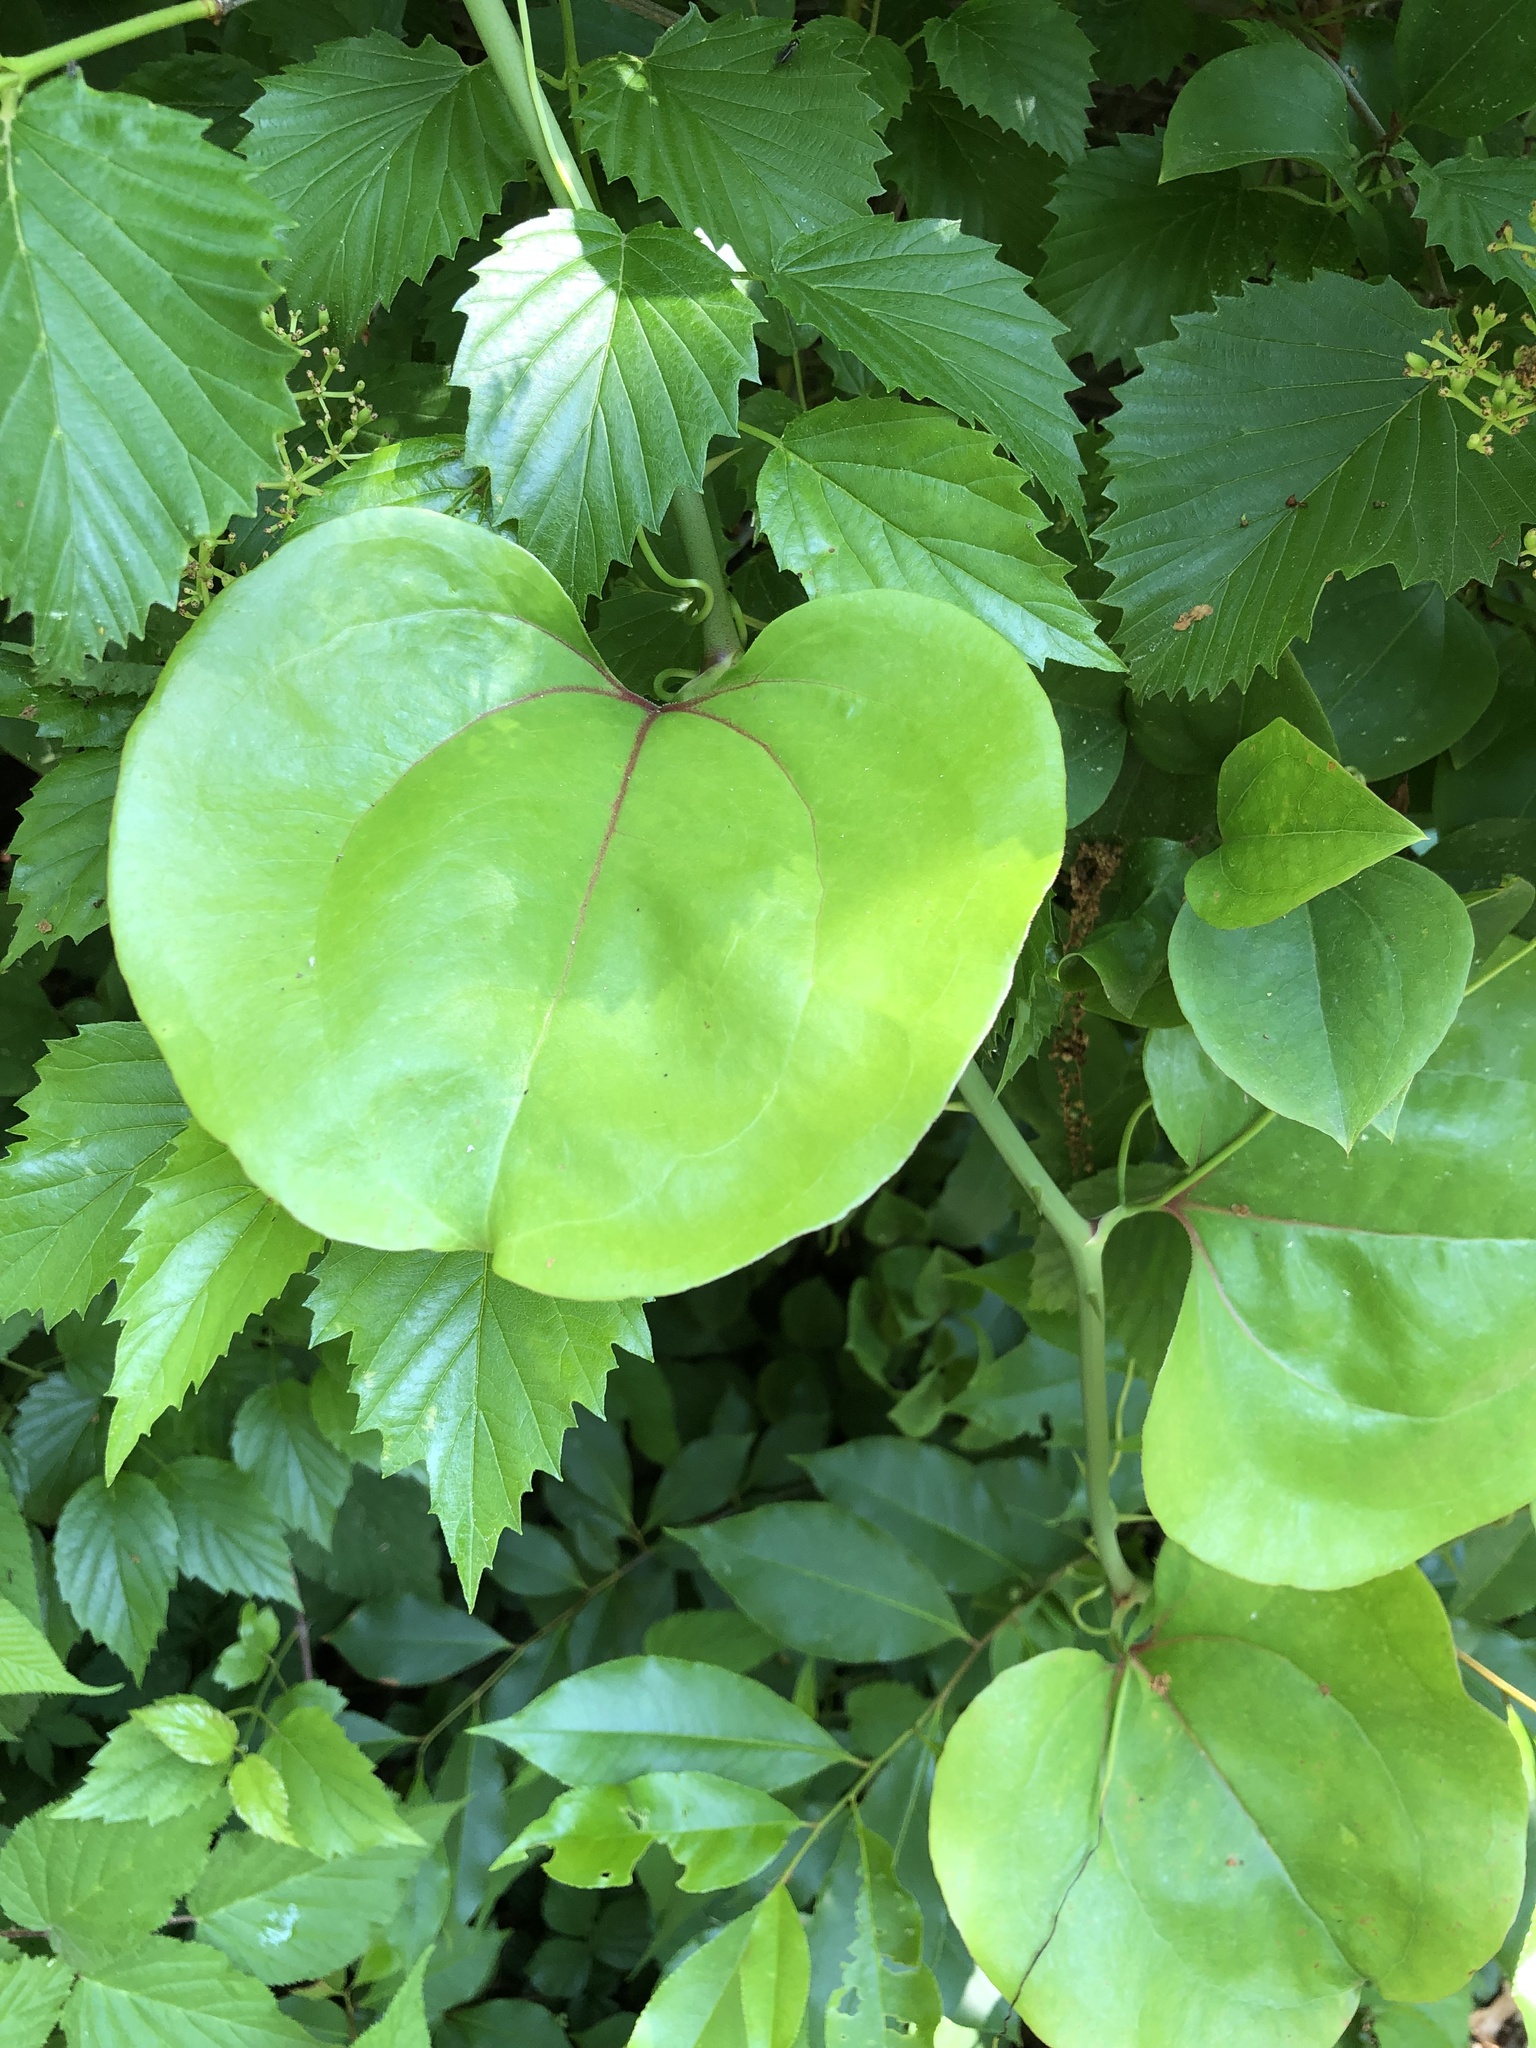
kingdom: Plantae
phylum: Tracheophyta
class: Liliopsida
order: Liliales
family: Smilacaceae
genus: Smilax
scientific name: Smilax rotundifolia
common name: Bullbriar
